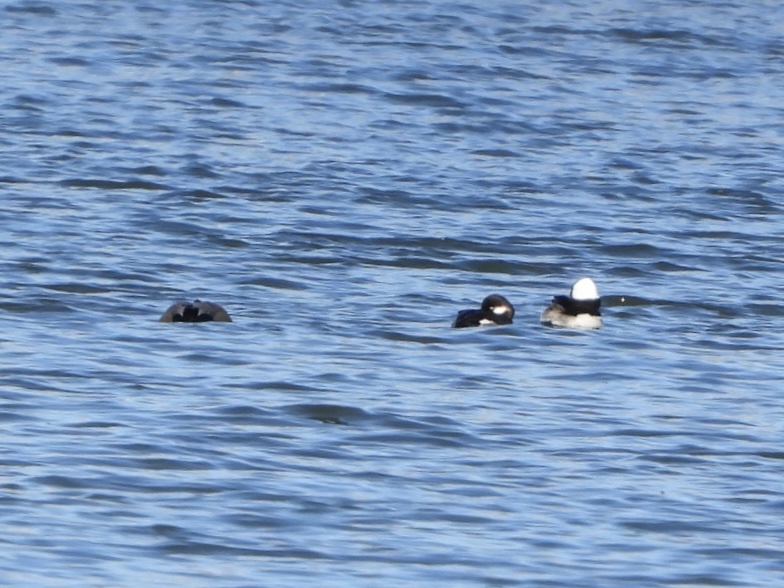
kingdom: Animalia
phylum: Chordata
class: Aves
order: Anseriformes
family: Anatidae
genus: Bucephala
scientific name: Bucephala albeola
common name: Bufflehead
